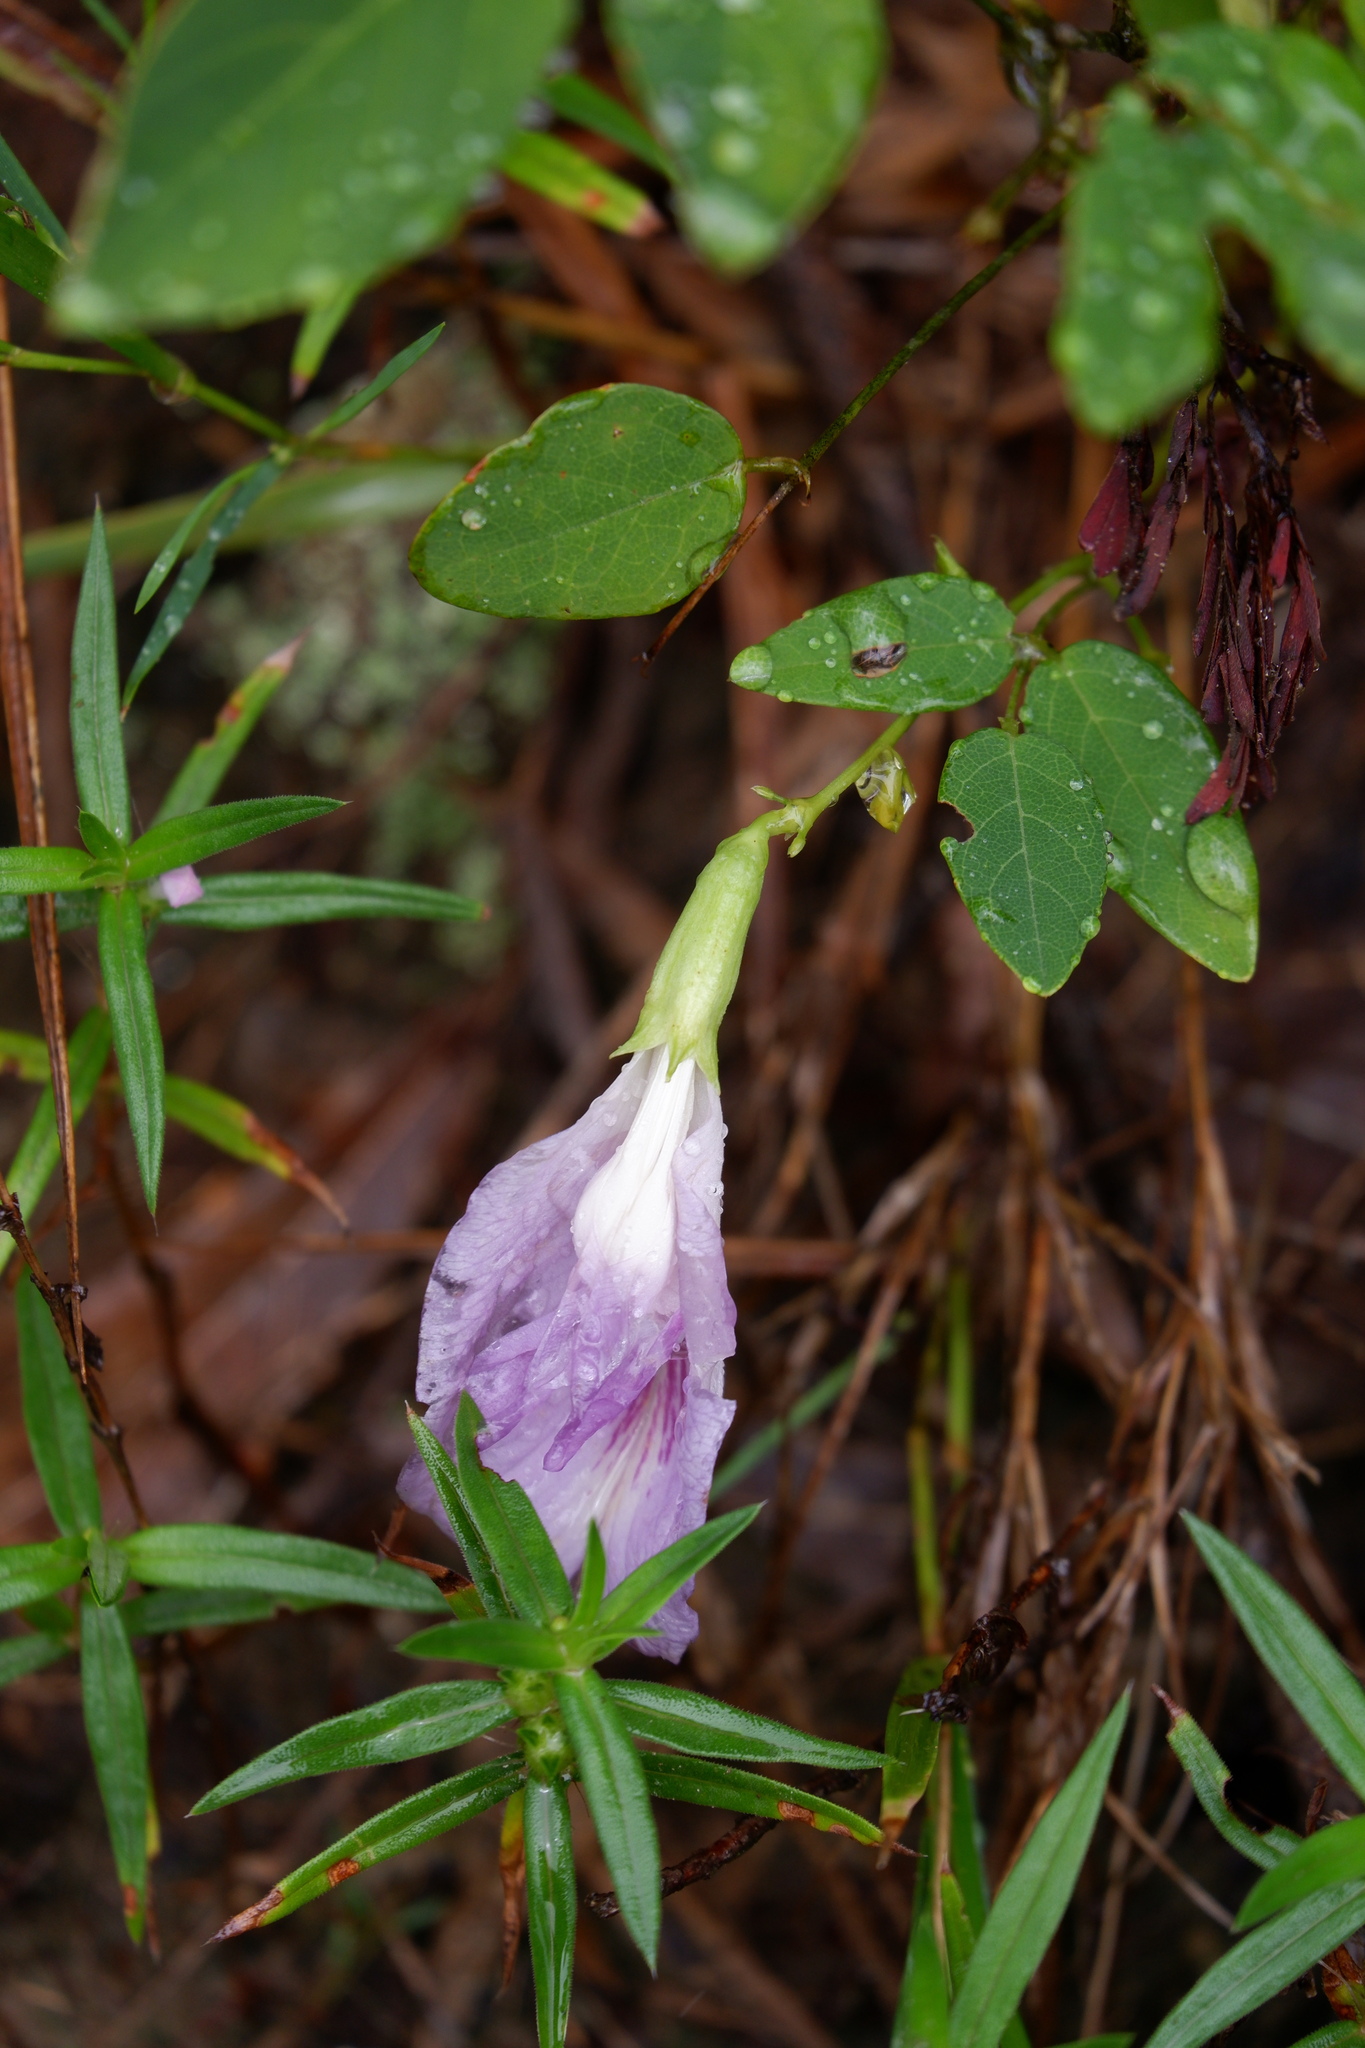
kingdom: Plantae
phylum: Tracheophyta
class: Magnoliopsida
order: Fabales
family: Fabaceae
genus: Clitoria
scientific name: Clitoria mariana
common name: Butterfly-pea
